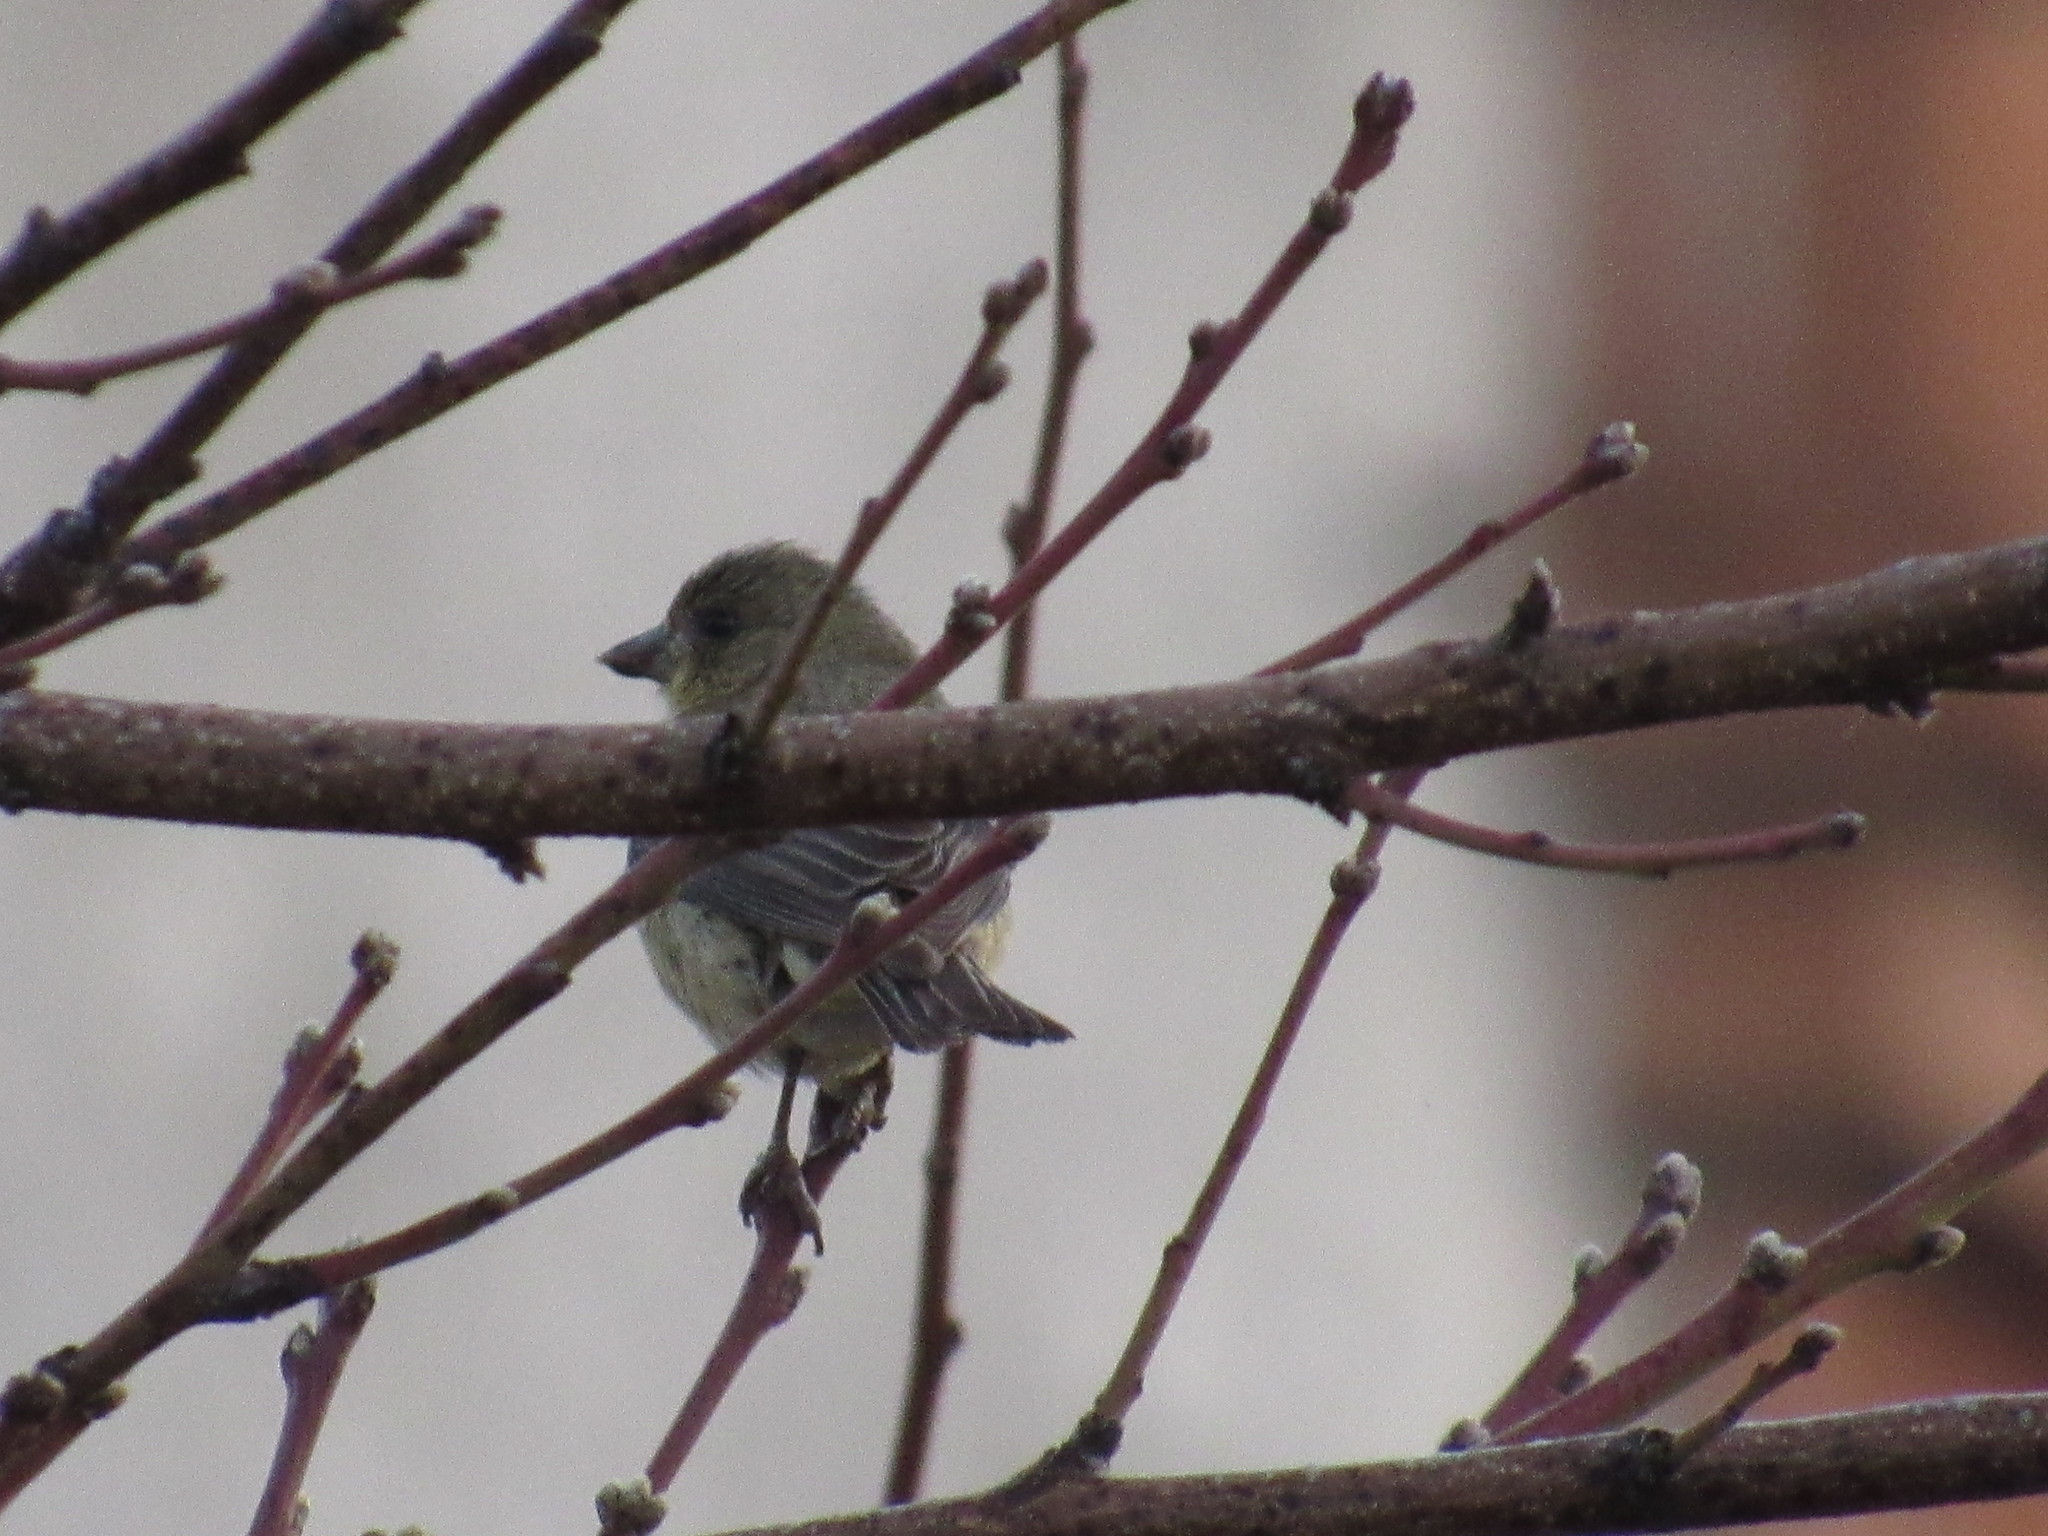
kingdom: Animalia
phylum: Chordata
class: Aves
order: Passeriformes
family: Fringillidae
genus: Spinus
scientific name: Spinus psaltria
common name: Lesser goldfinch
